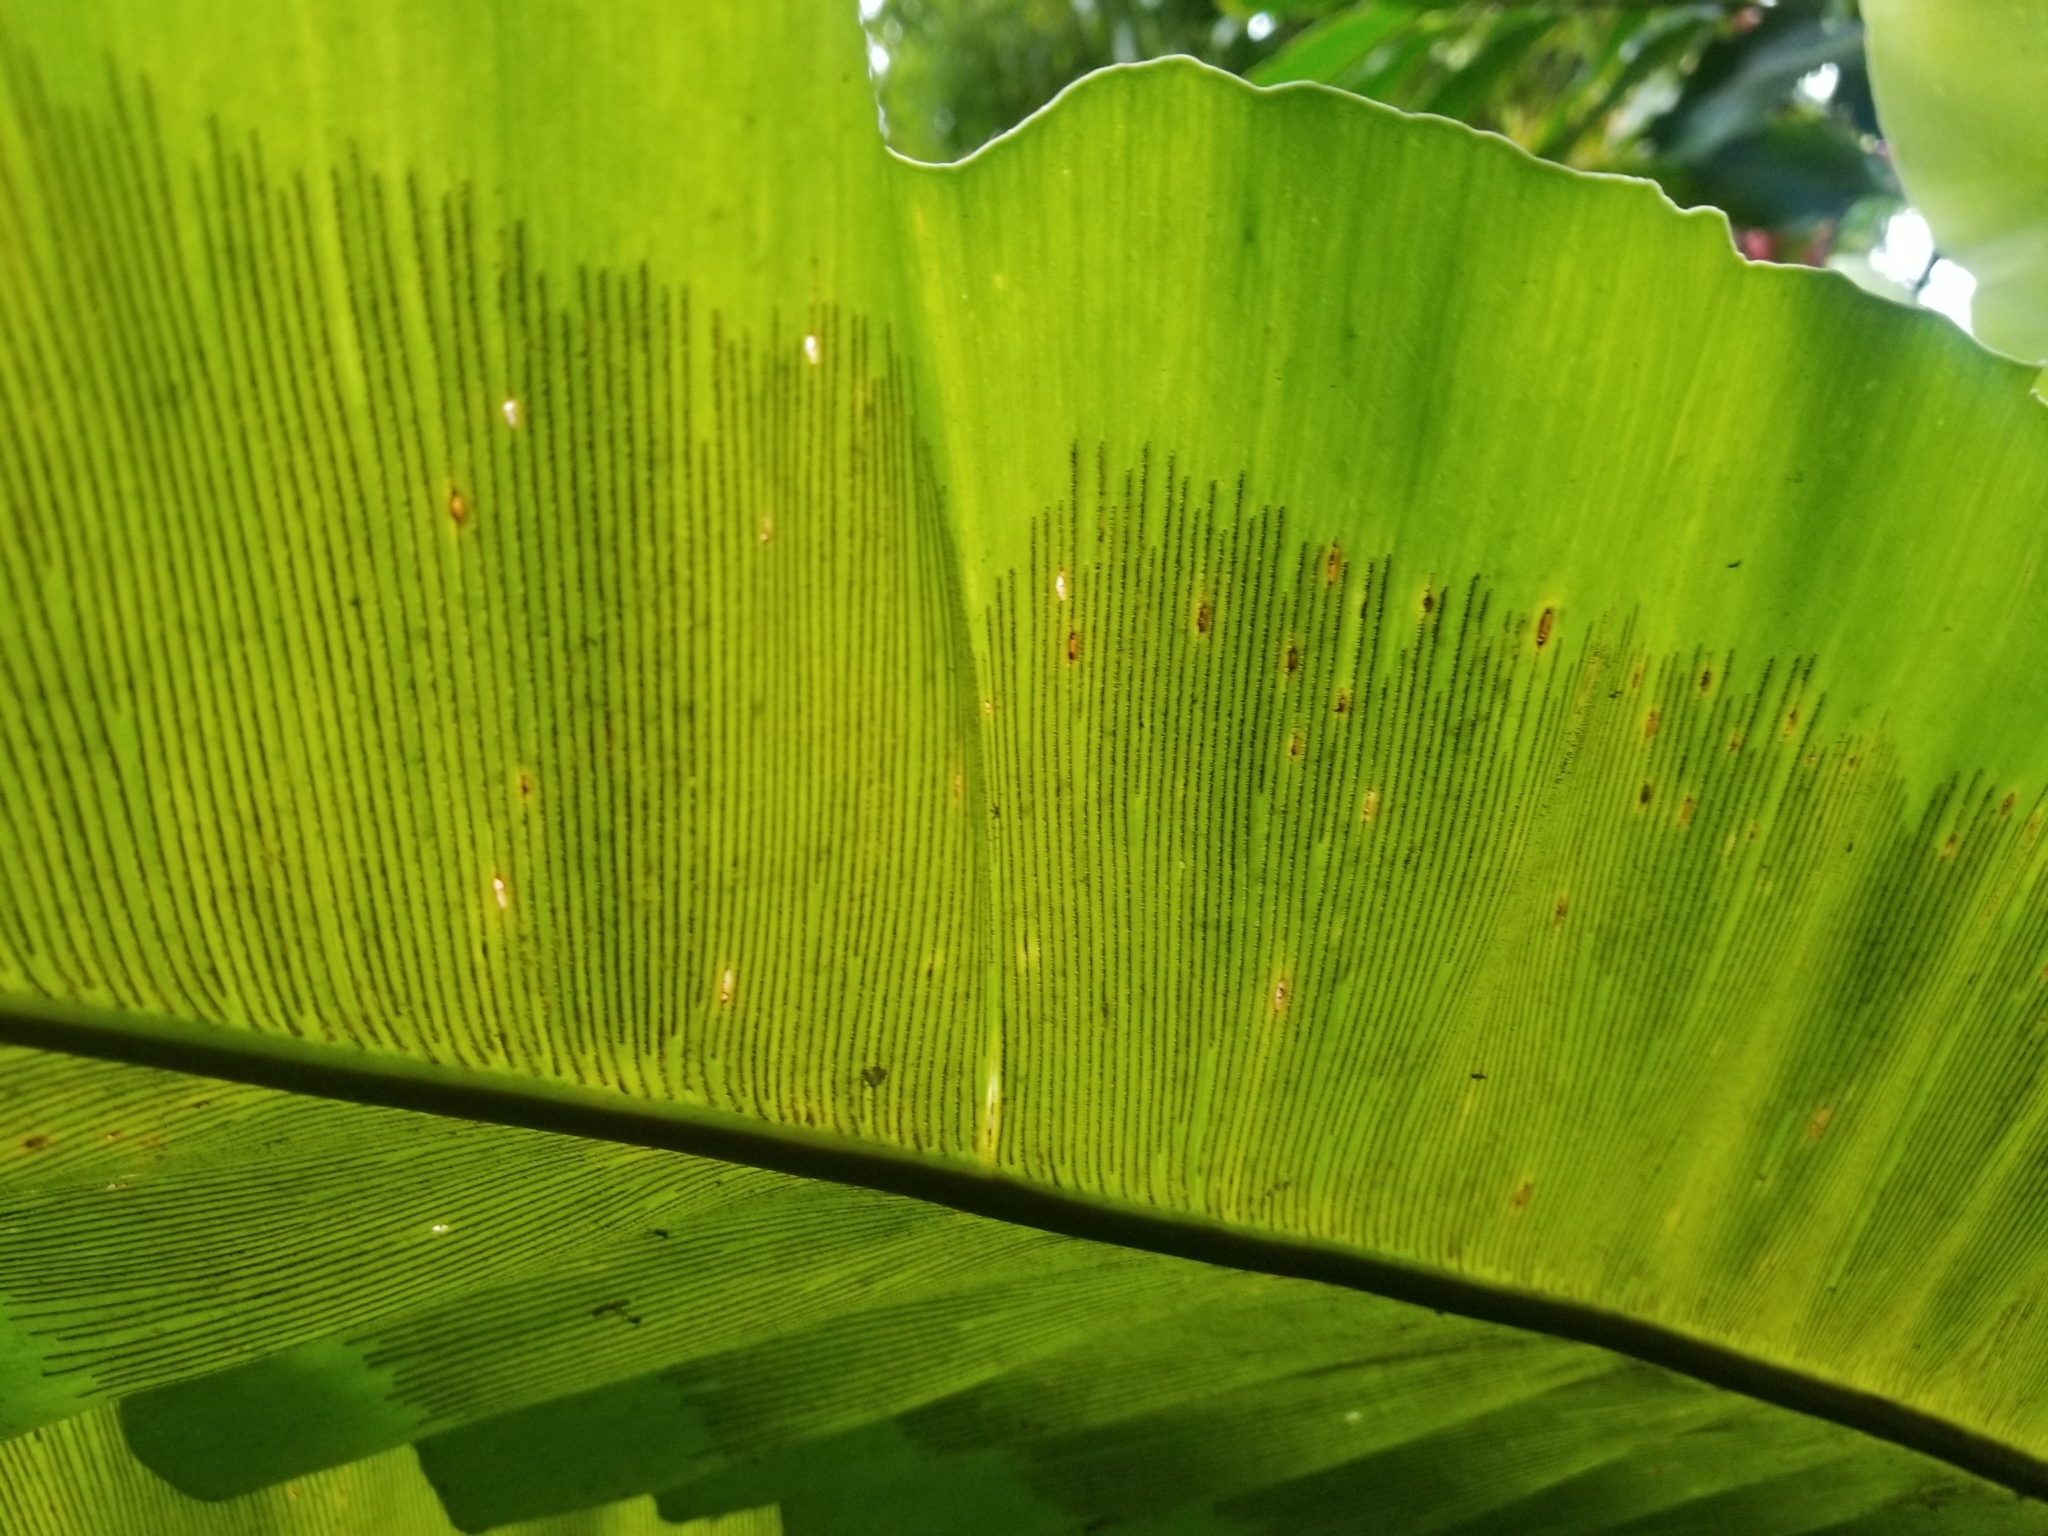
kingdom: Plantae
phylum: Tracheophyta
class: Polypodiopsida
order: Polypodiales
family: Aspleniaceae
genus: Asplenium
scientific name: Asplenium nidus
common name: Bird's-nest fern
